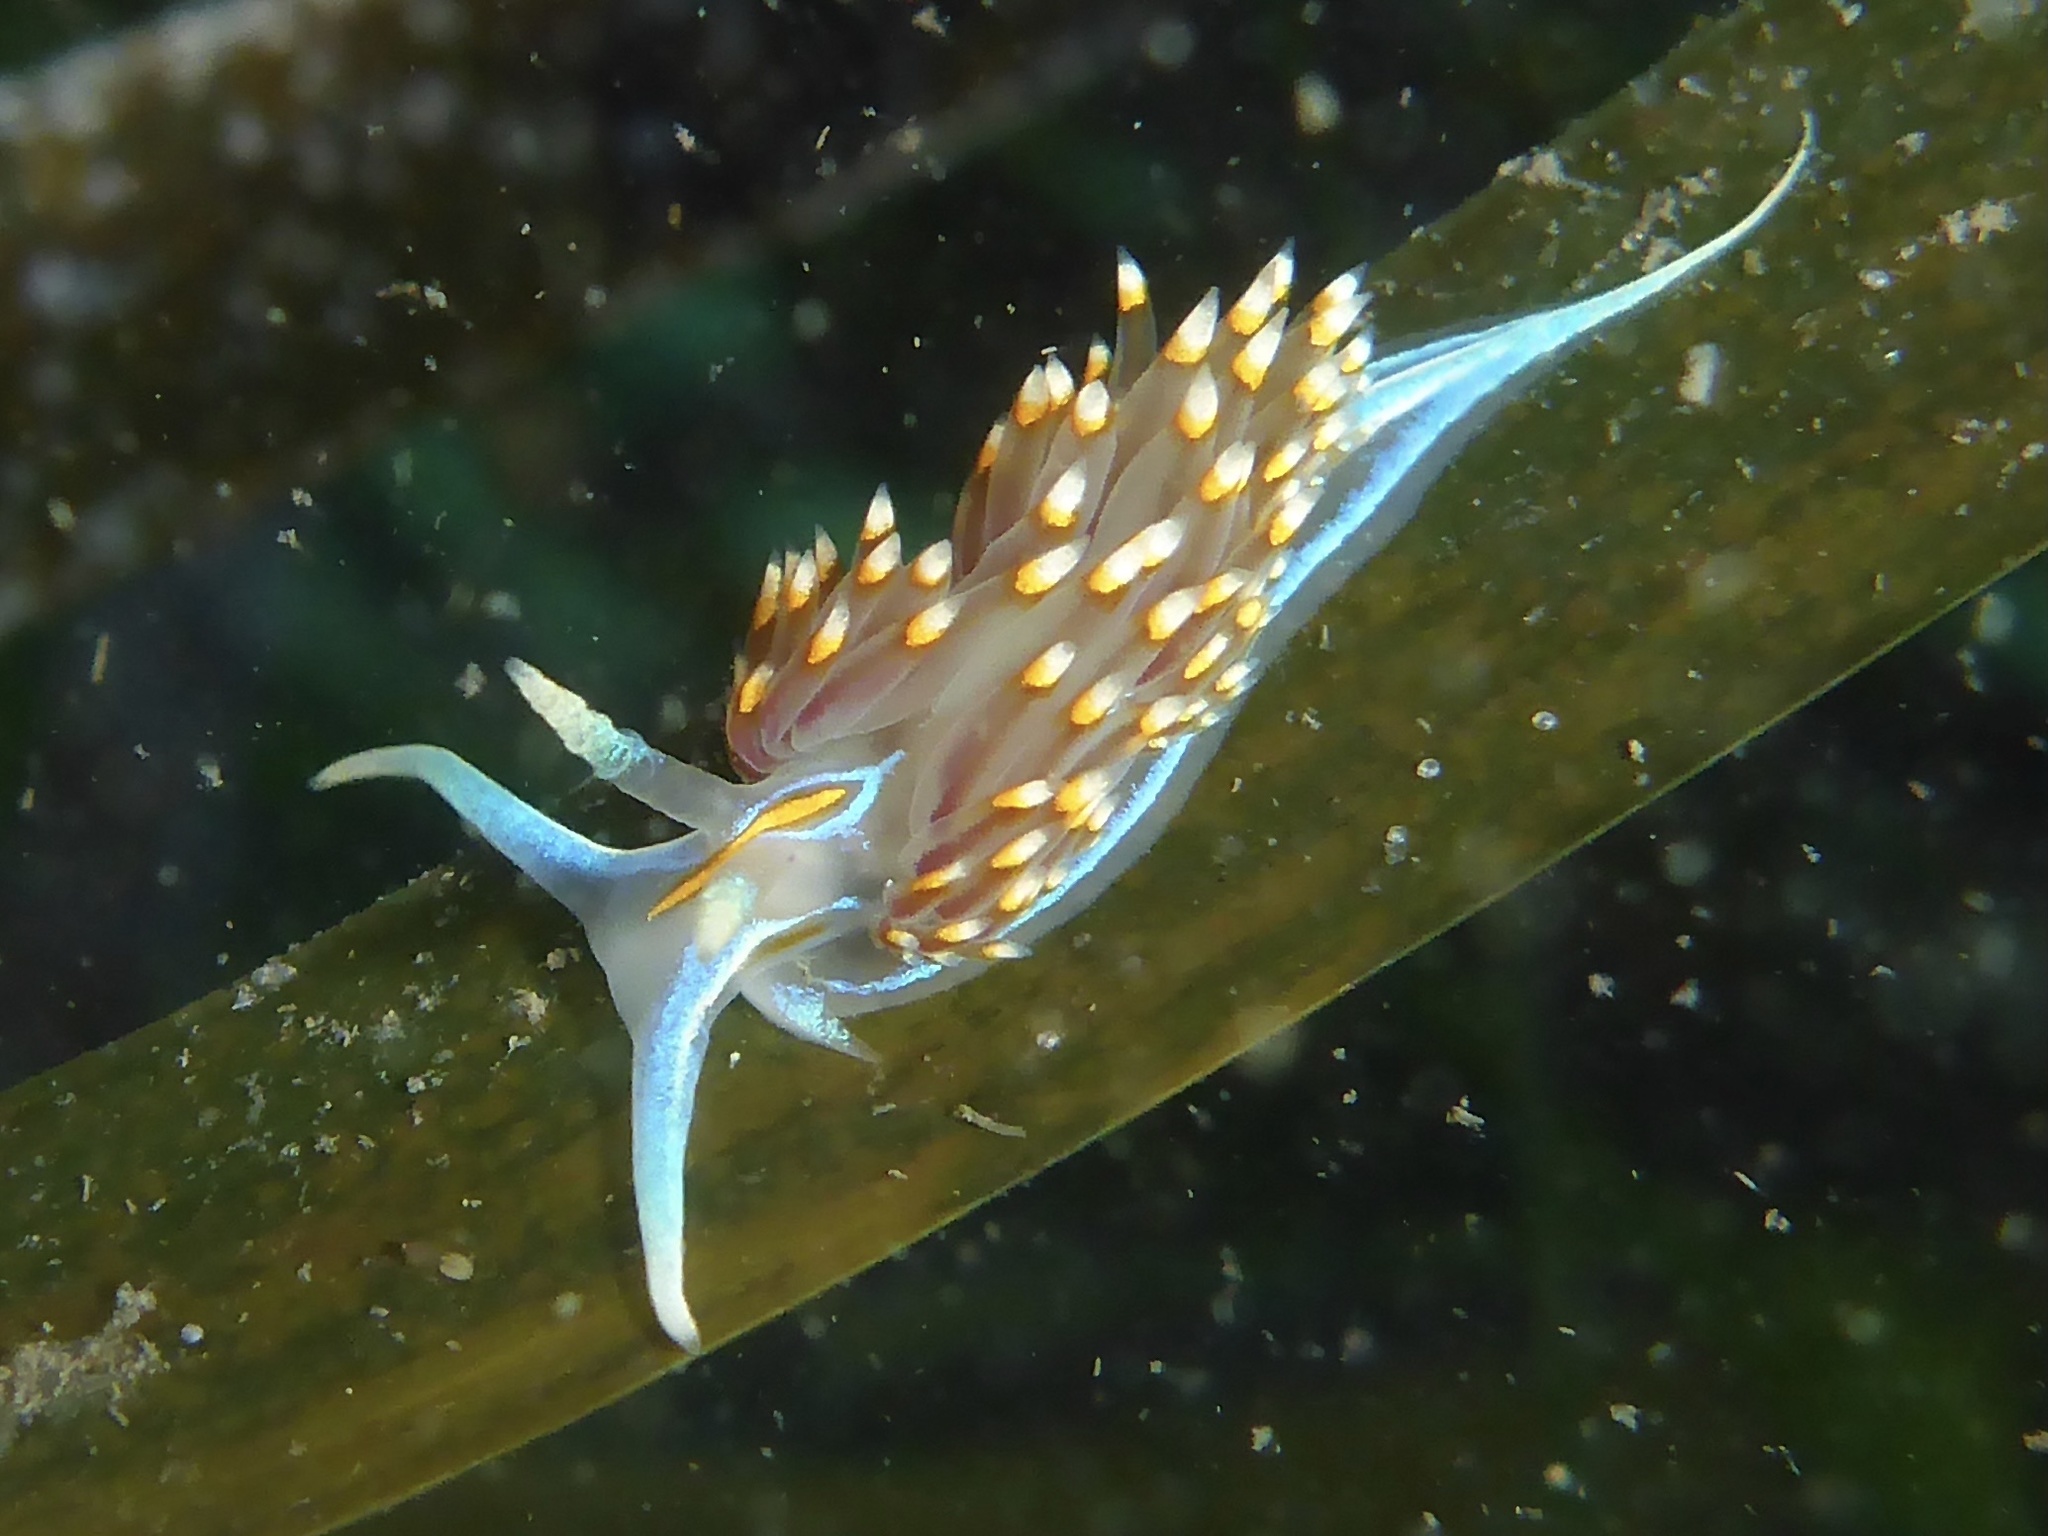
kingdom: Animalia
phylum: Mollusca
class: Gastropoda
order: Nudibranchia
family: Myrrhinidae
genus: Hermissenda
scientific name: Hermissenda opalescens
